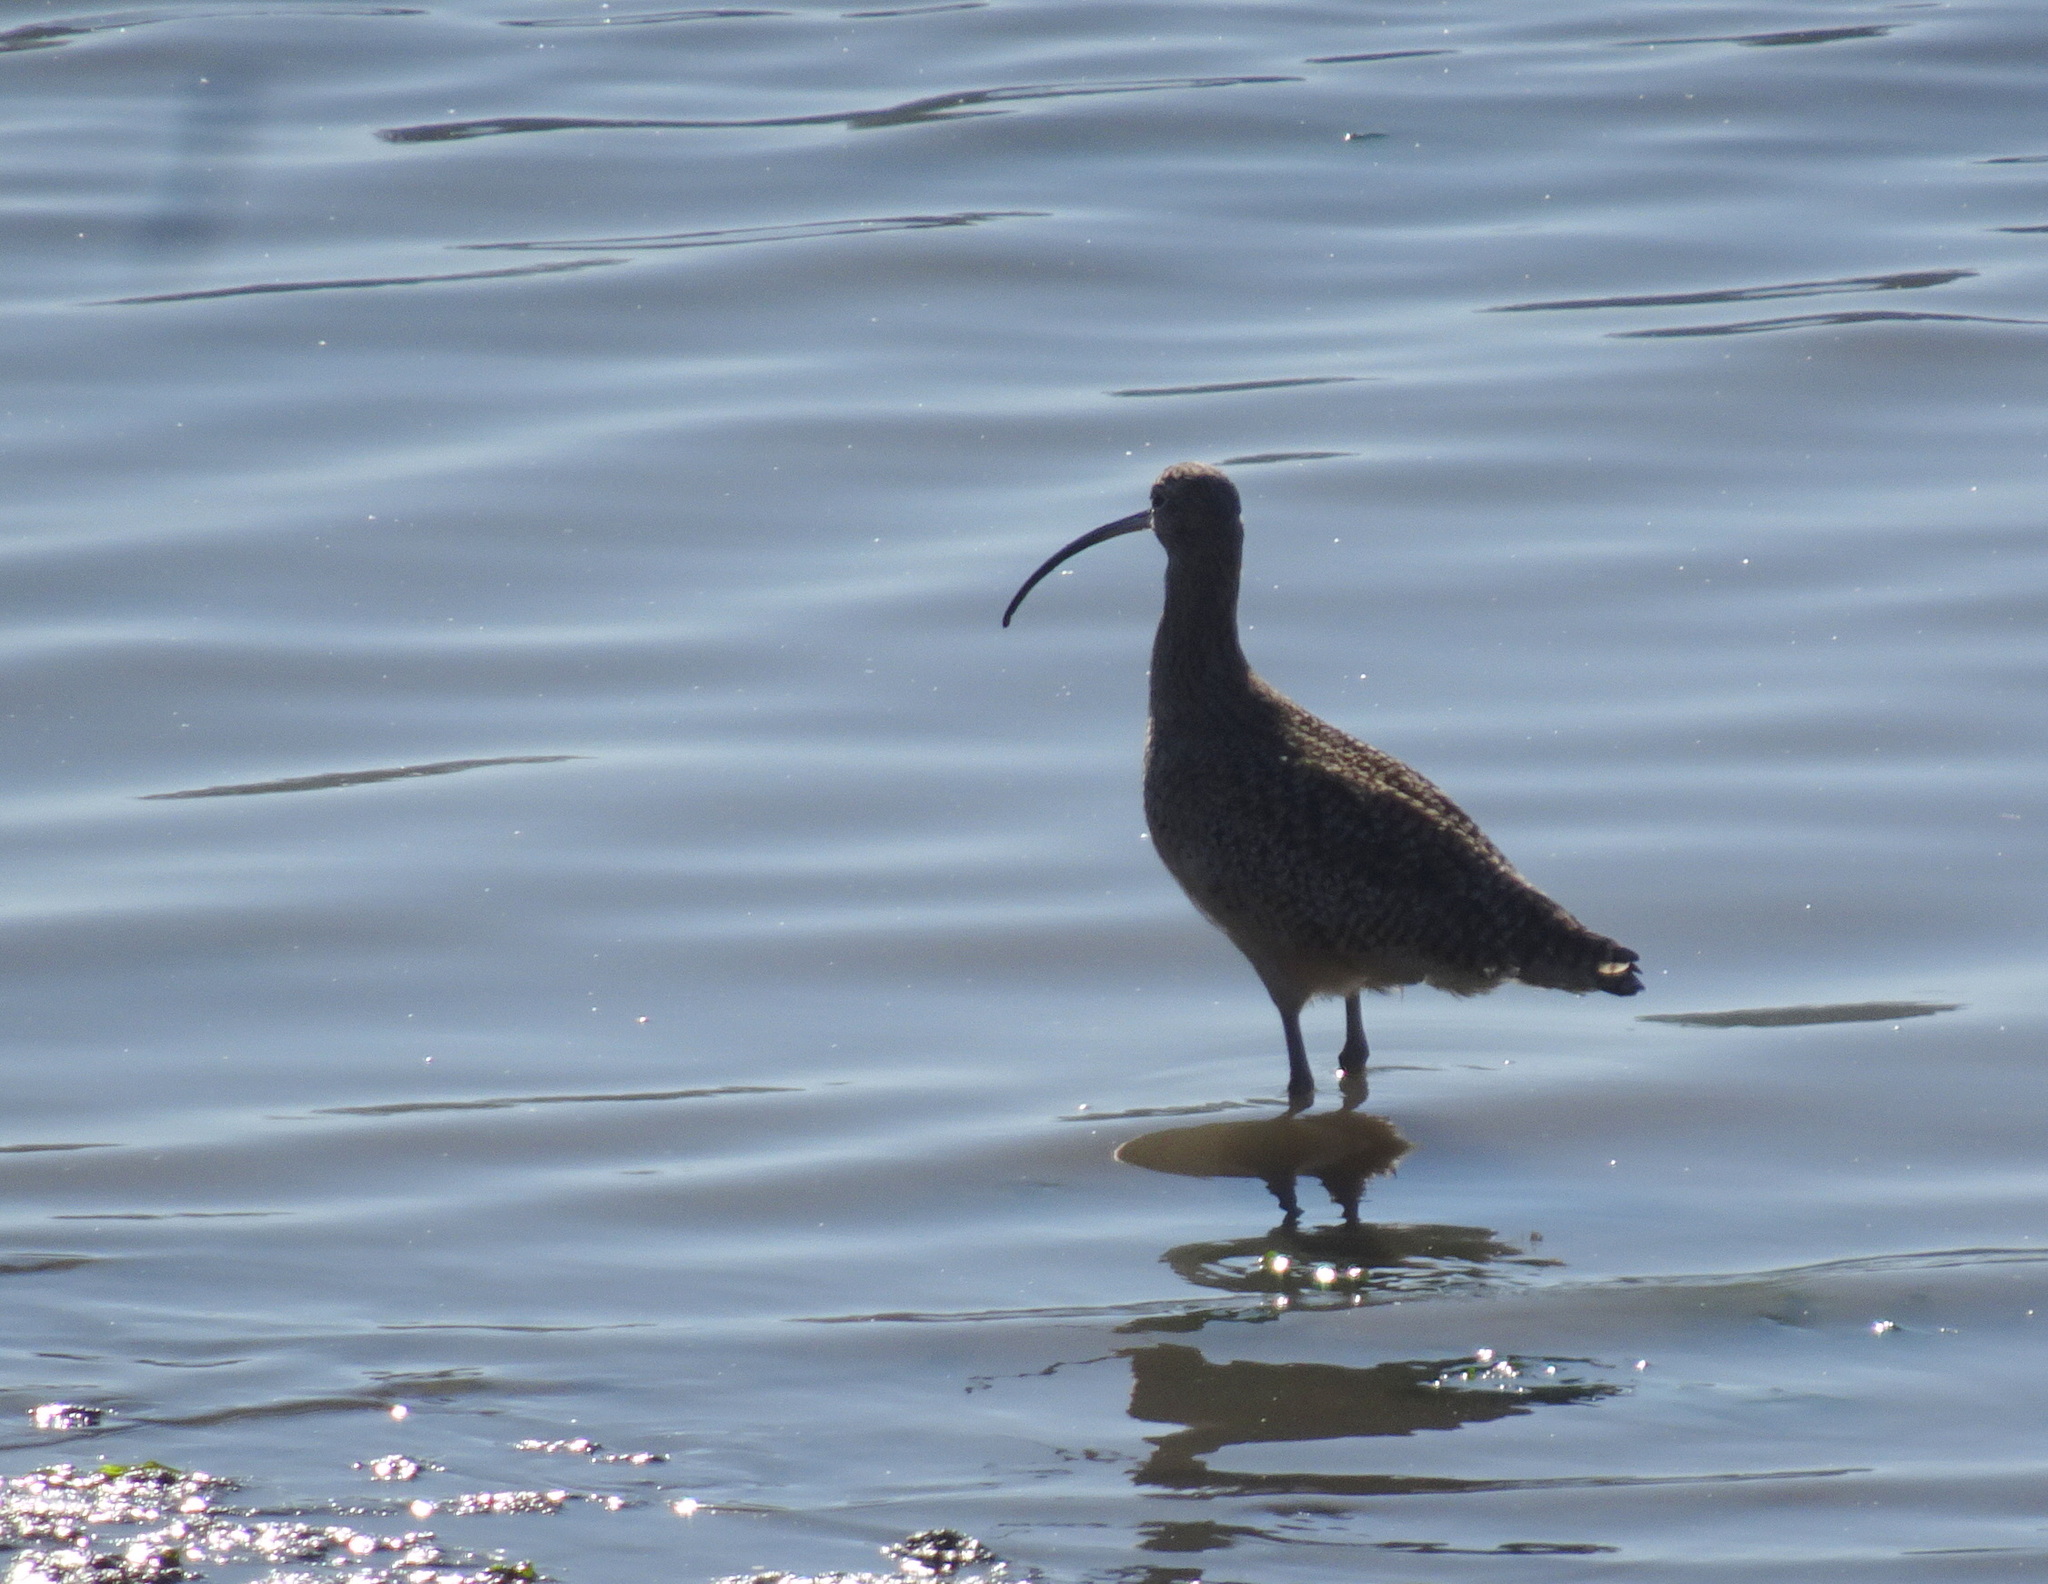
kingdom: Animalia
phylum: Chordata
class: Aves
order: Charadriiformes
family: Scolopacidae
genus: Numenius
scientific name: Numenius americanus
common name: Long-billed curlew
